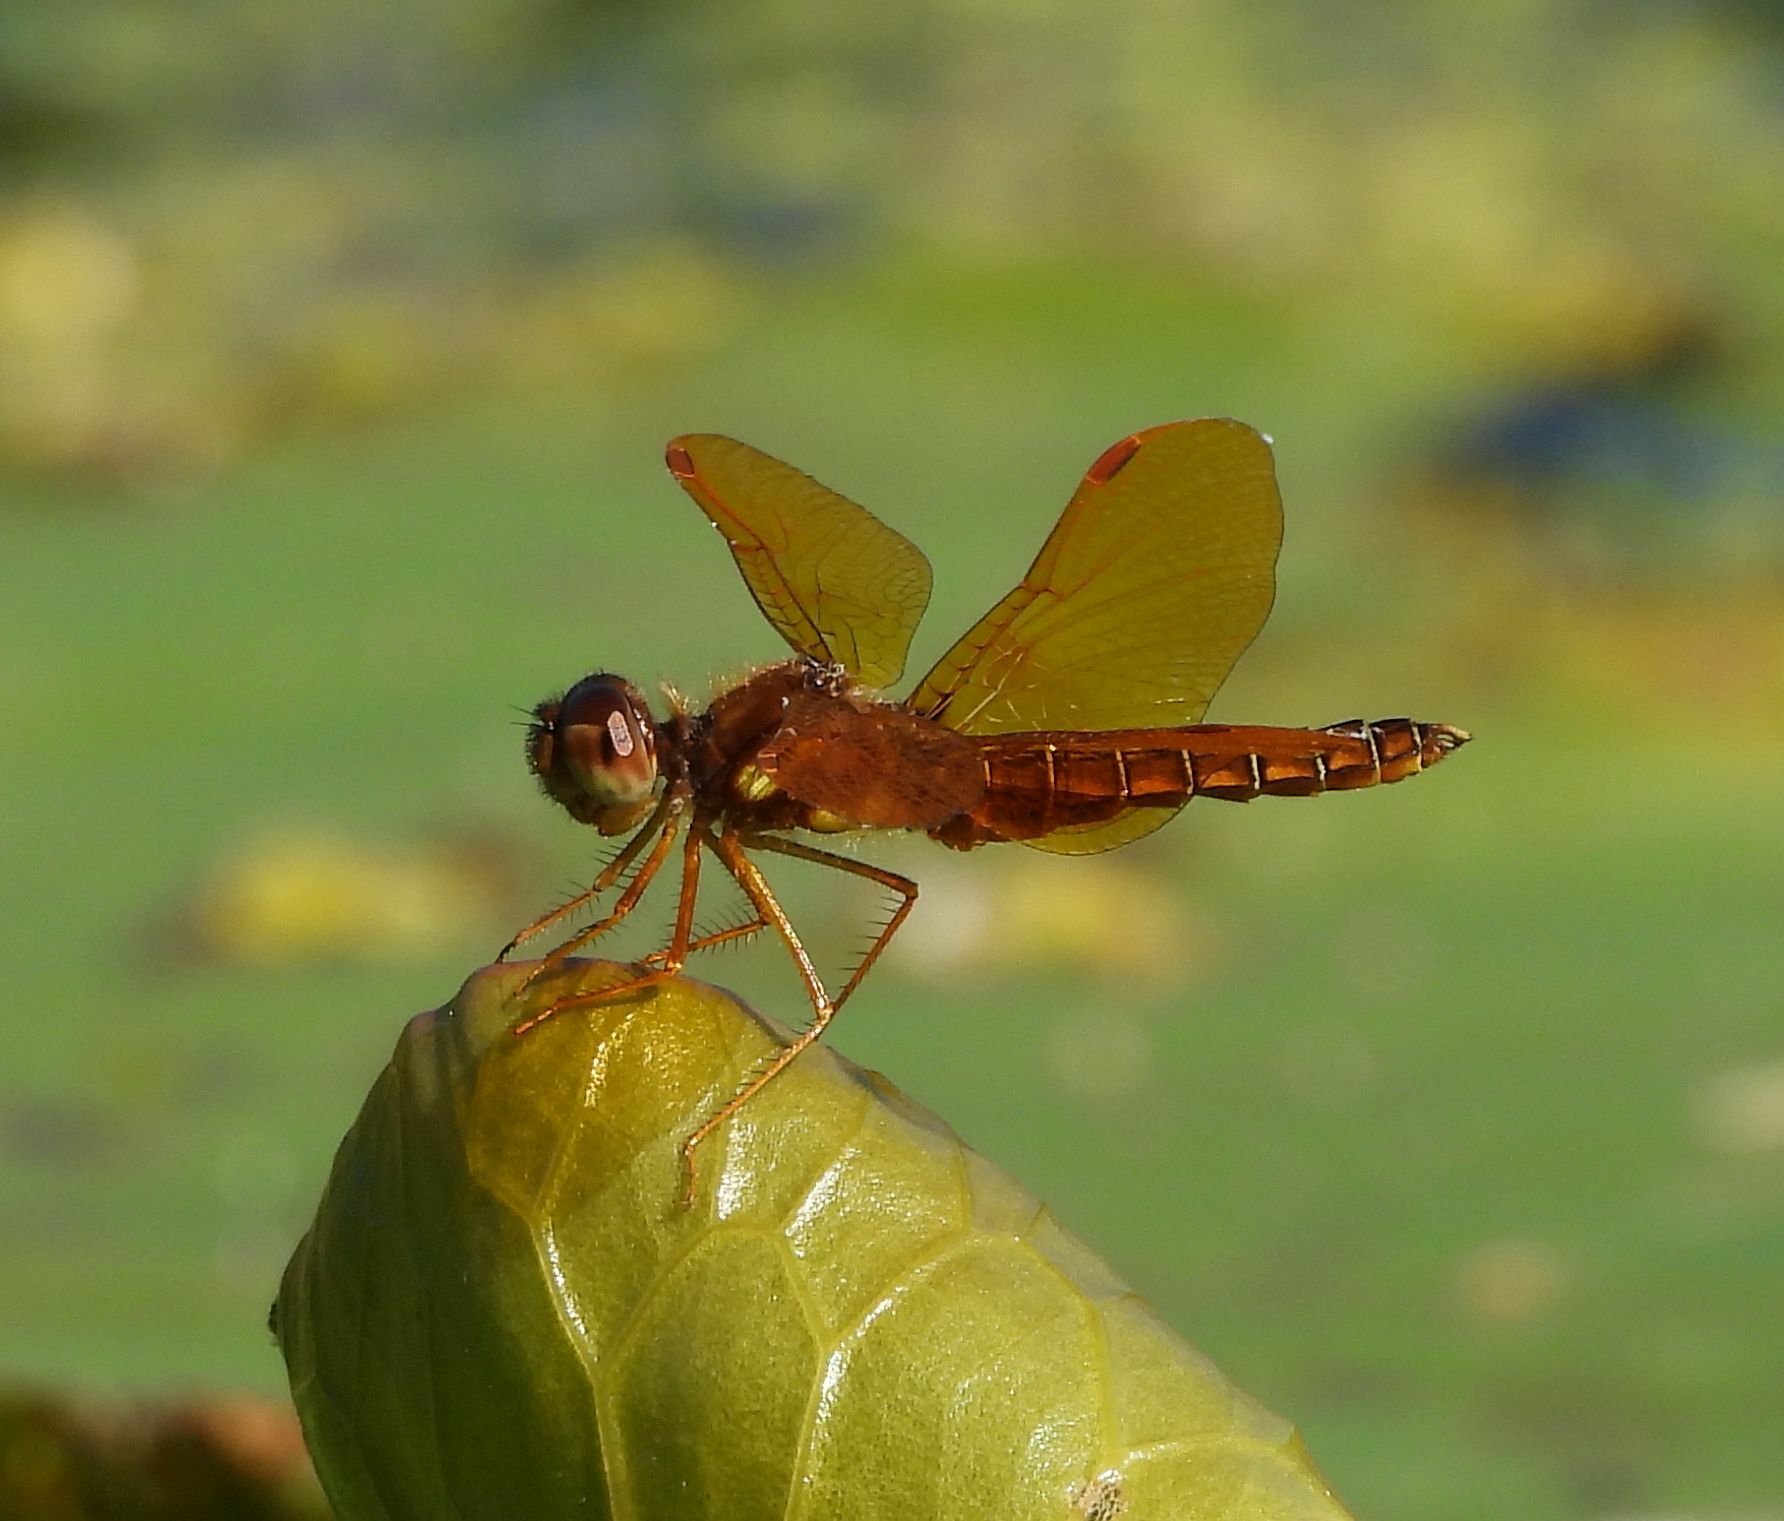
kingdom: Animalia
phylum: Arthropoda
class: Insecta
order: Odonata
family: Libellulidae
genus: Perithemis
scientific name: Perithemis tenera
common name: Eastern amberwing
